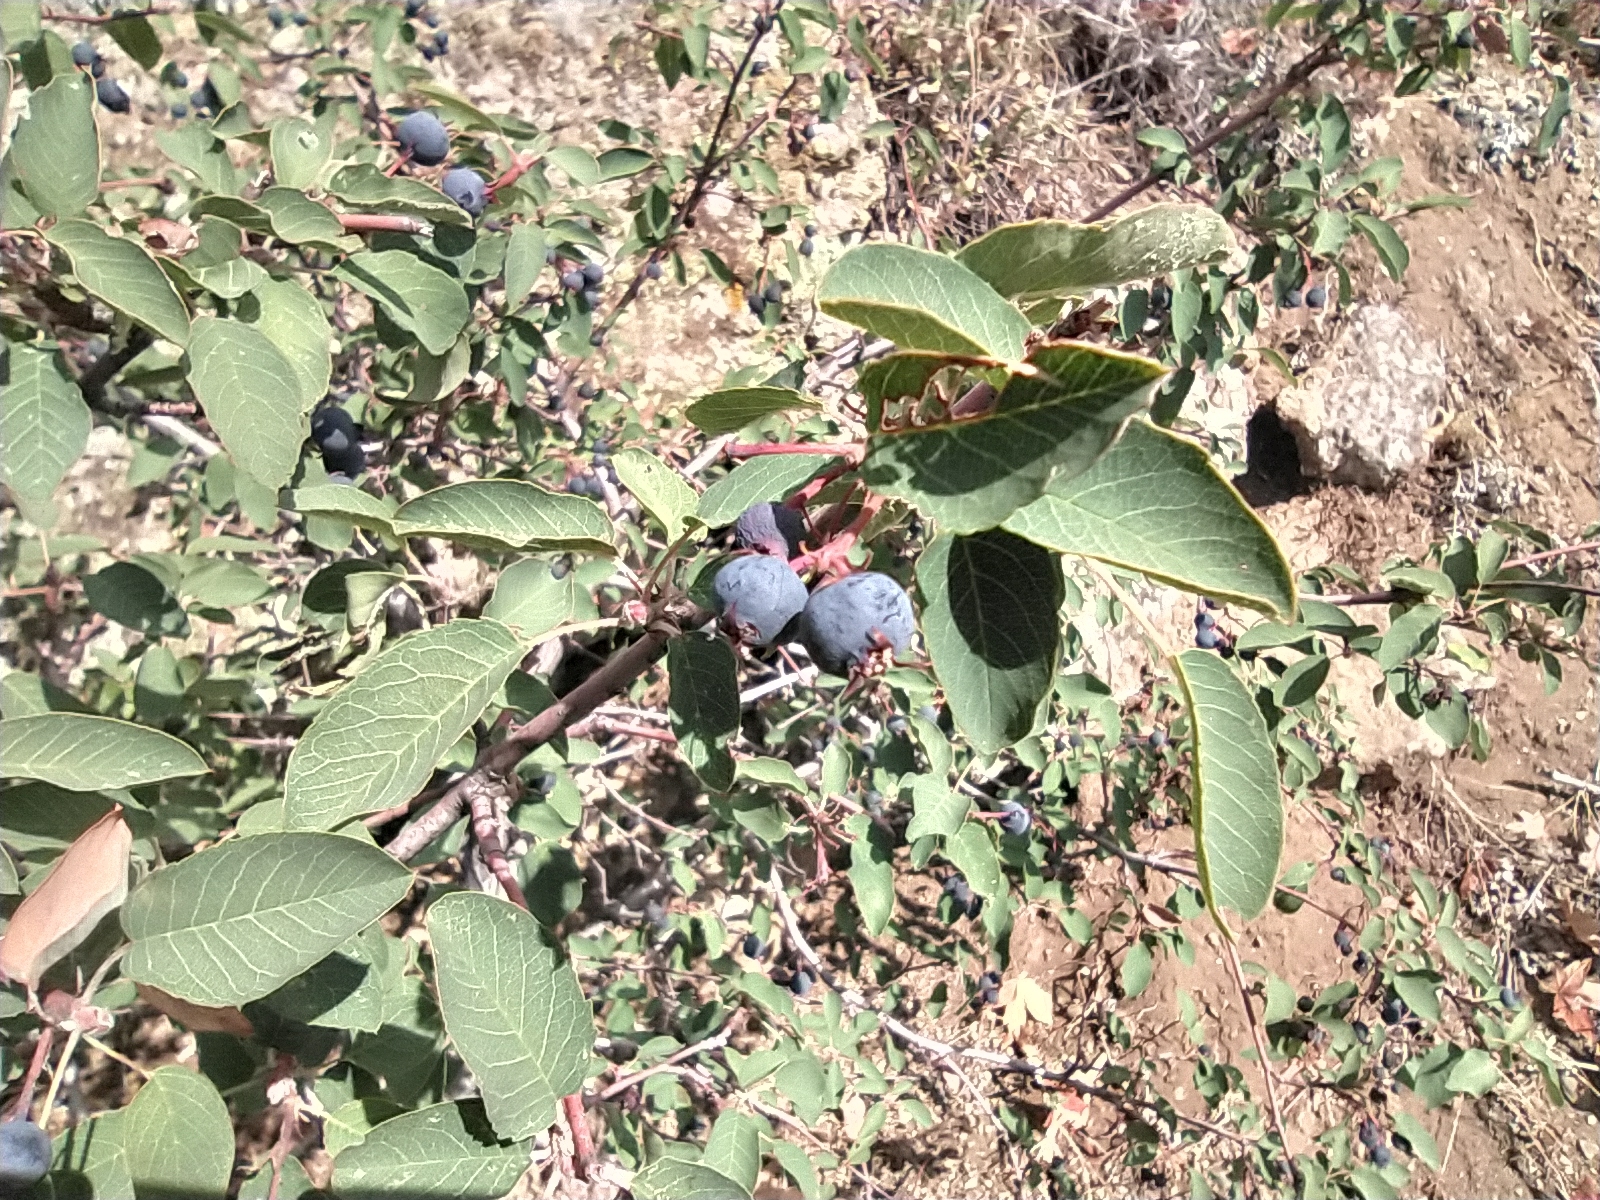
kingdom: Plantae
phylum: Tracheophyta
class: Magnoliopsida
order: Rosales
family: Rosaceae
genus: Amelanchier
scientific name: Amelanchier ovalis
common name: Serviceberry
